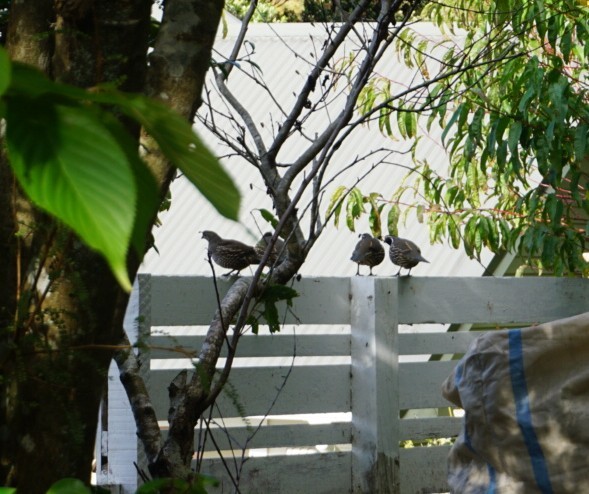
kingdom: Animalia
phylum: Chordata
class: Aves
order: Galliformes
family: Odontophoridae
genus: Callipepla
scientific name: Callipepla californica
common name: California quail
